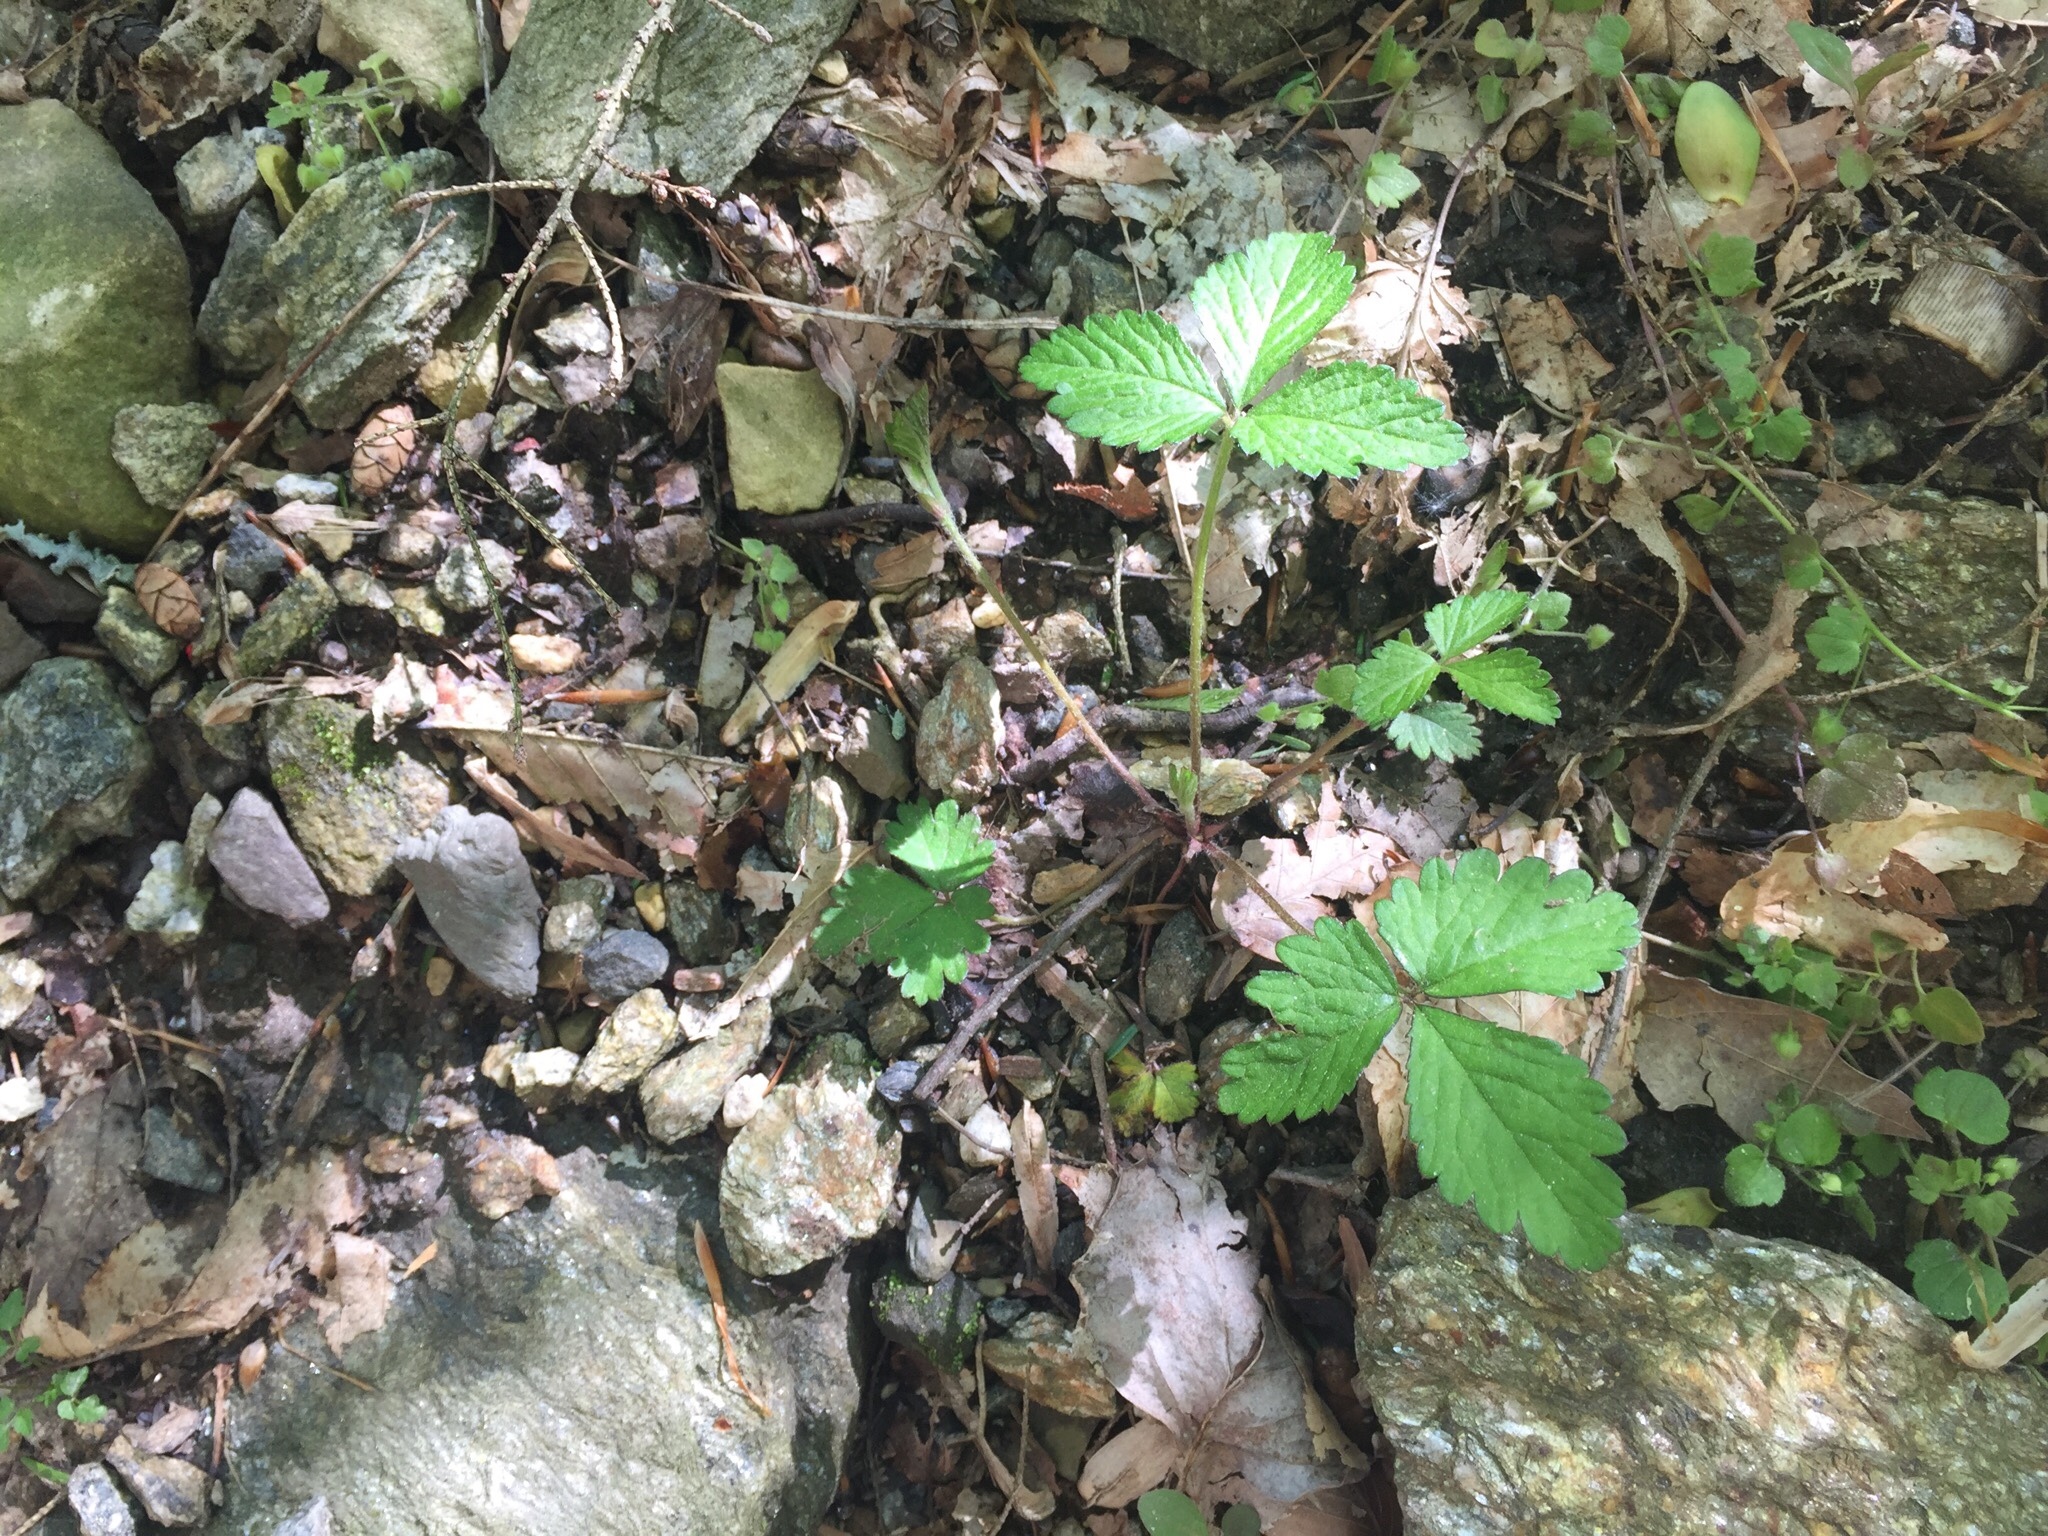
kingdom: Plantae
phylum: Tracheophyta
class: Magnoliopsida
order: Rosales
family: Rosaceae
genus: Potentilla
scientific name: Potentilla indica
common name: Yellow-flowered strawberry
